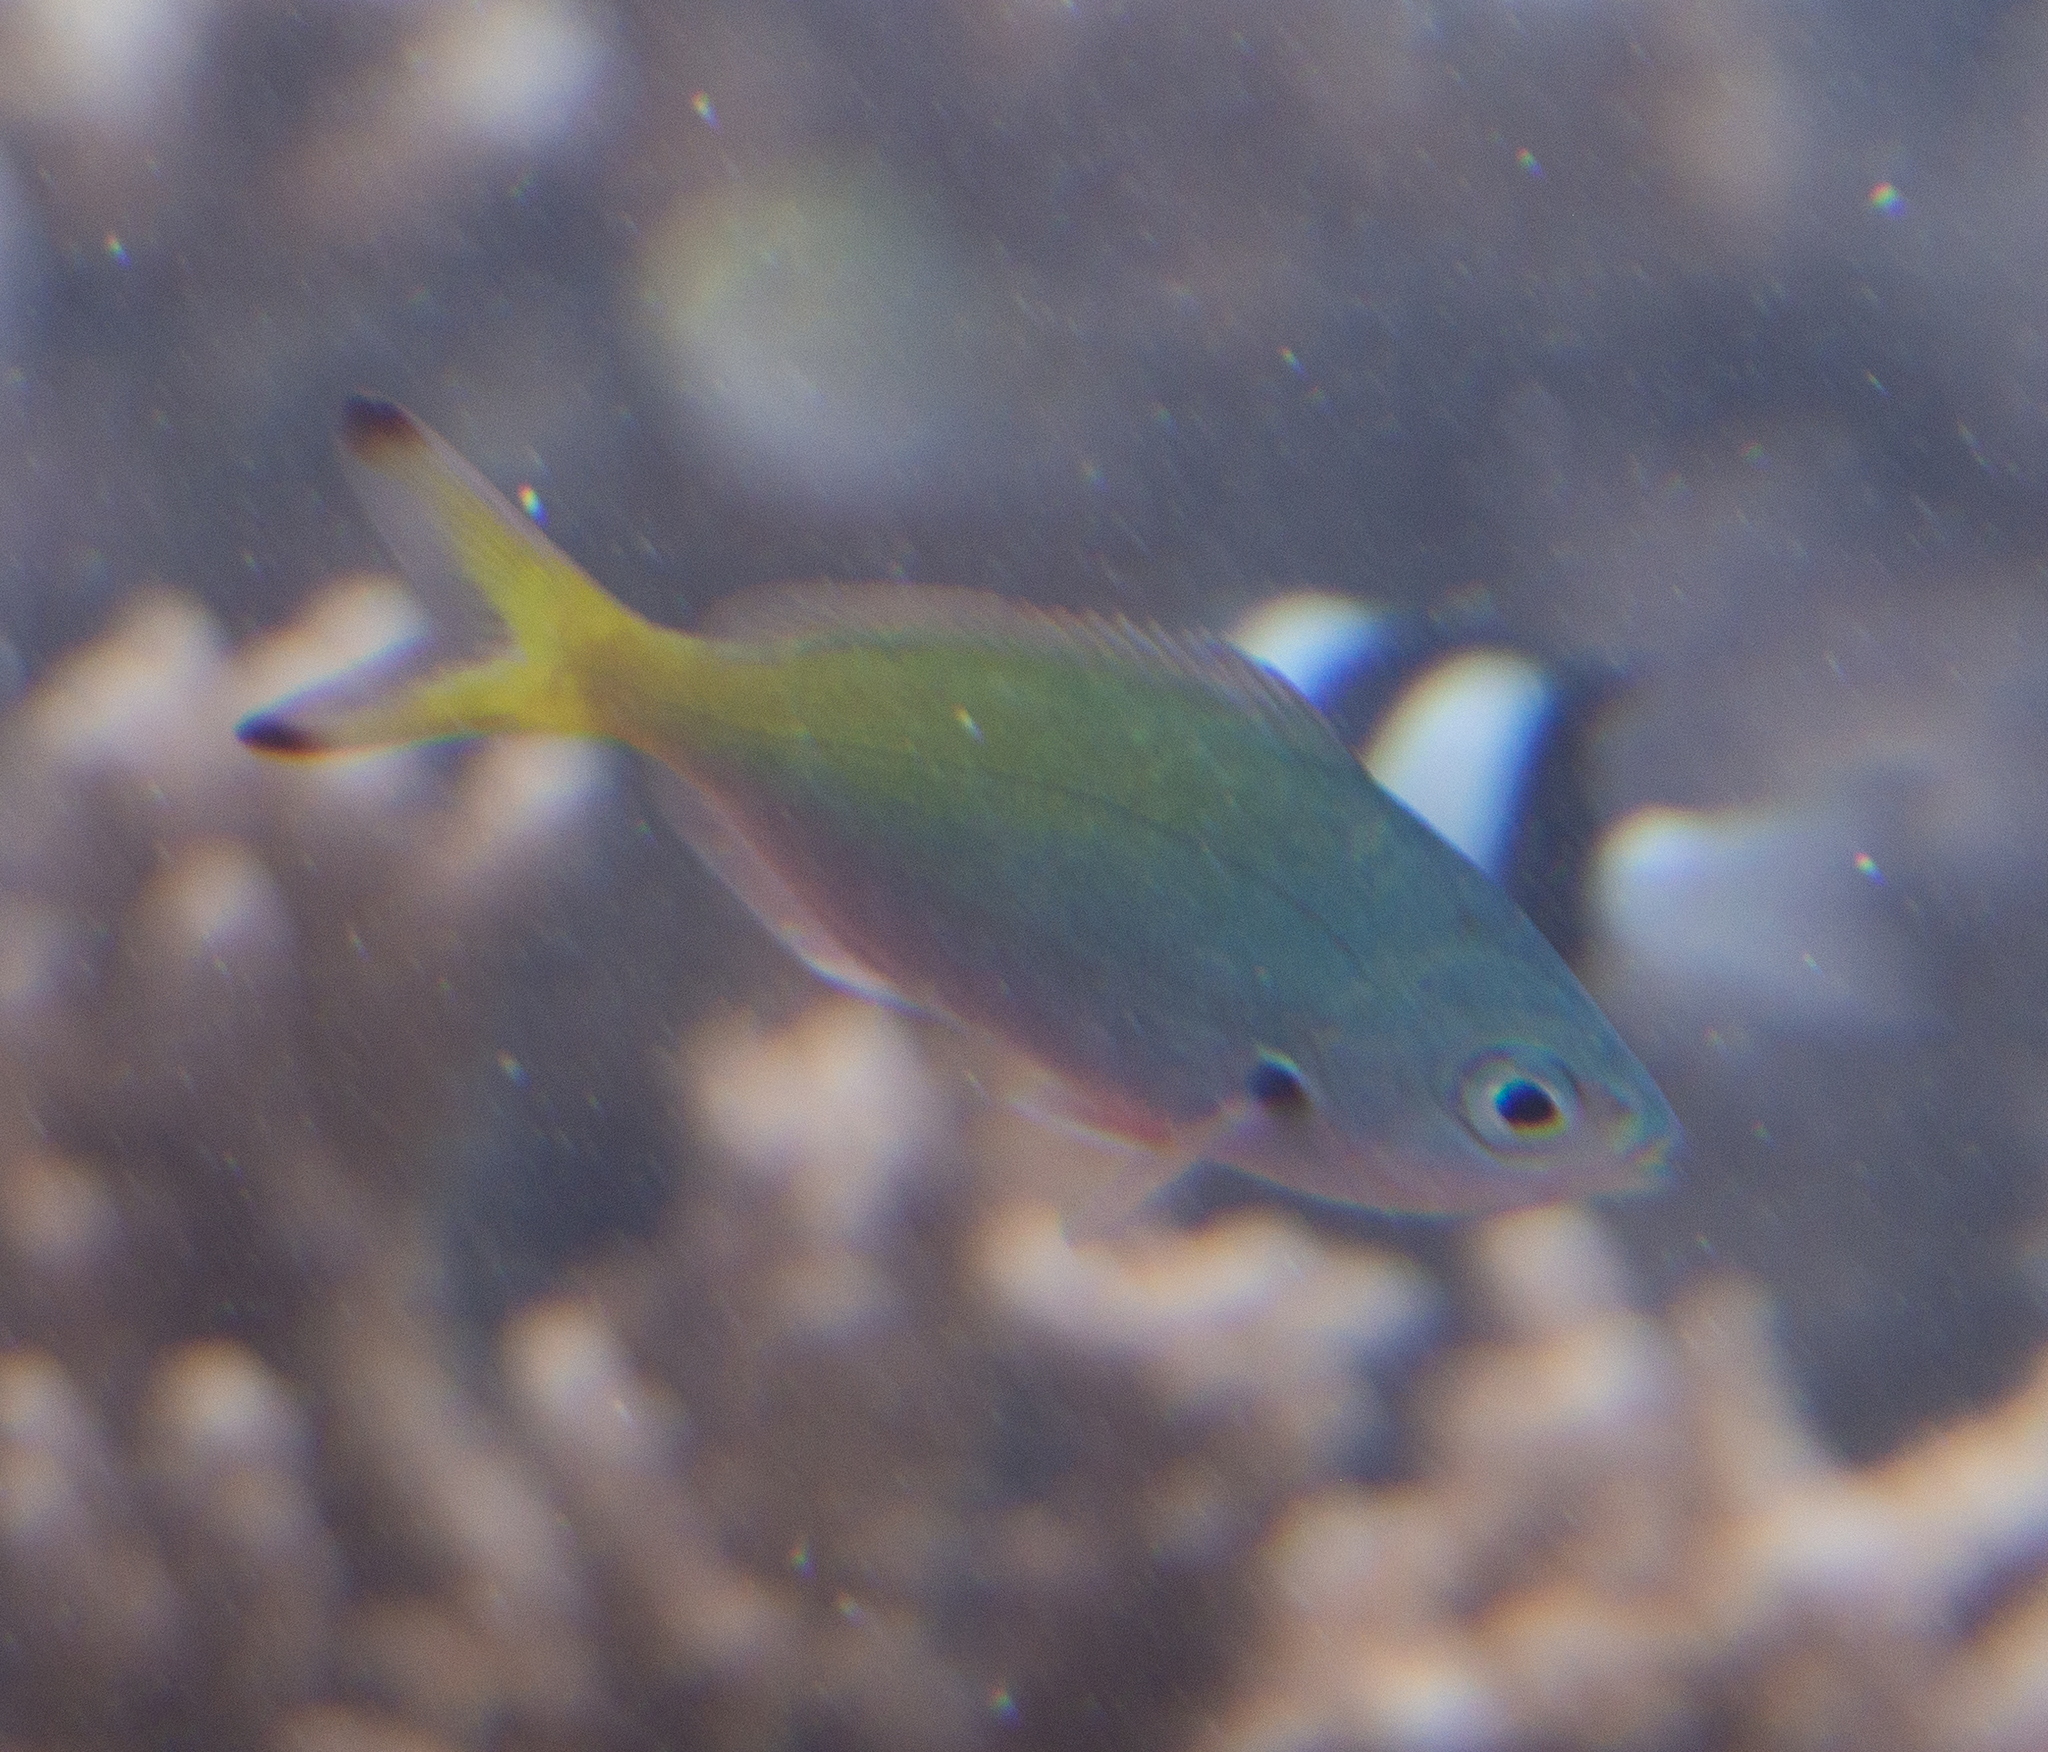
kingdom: Animalia
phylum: Chordata
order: Perciformes
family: Caesionidae
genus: Caesio
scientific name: Caesio lunaris
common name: Blue fusilier
